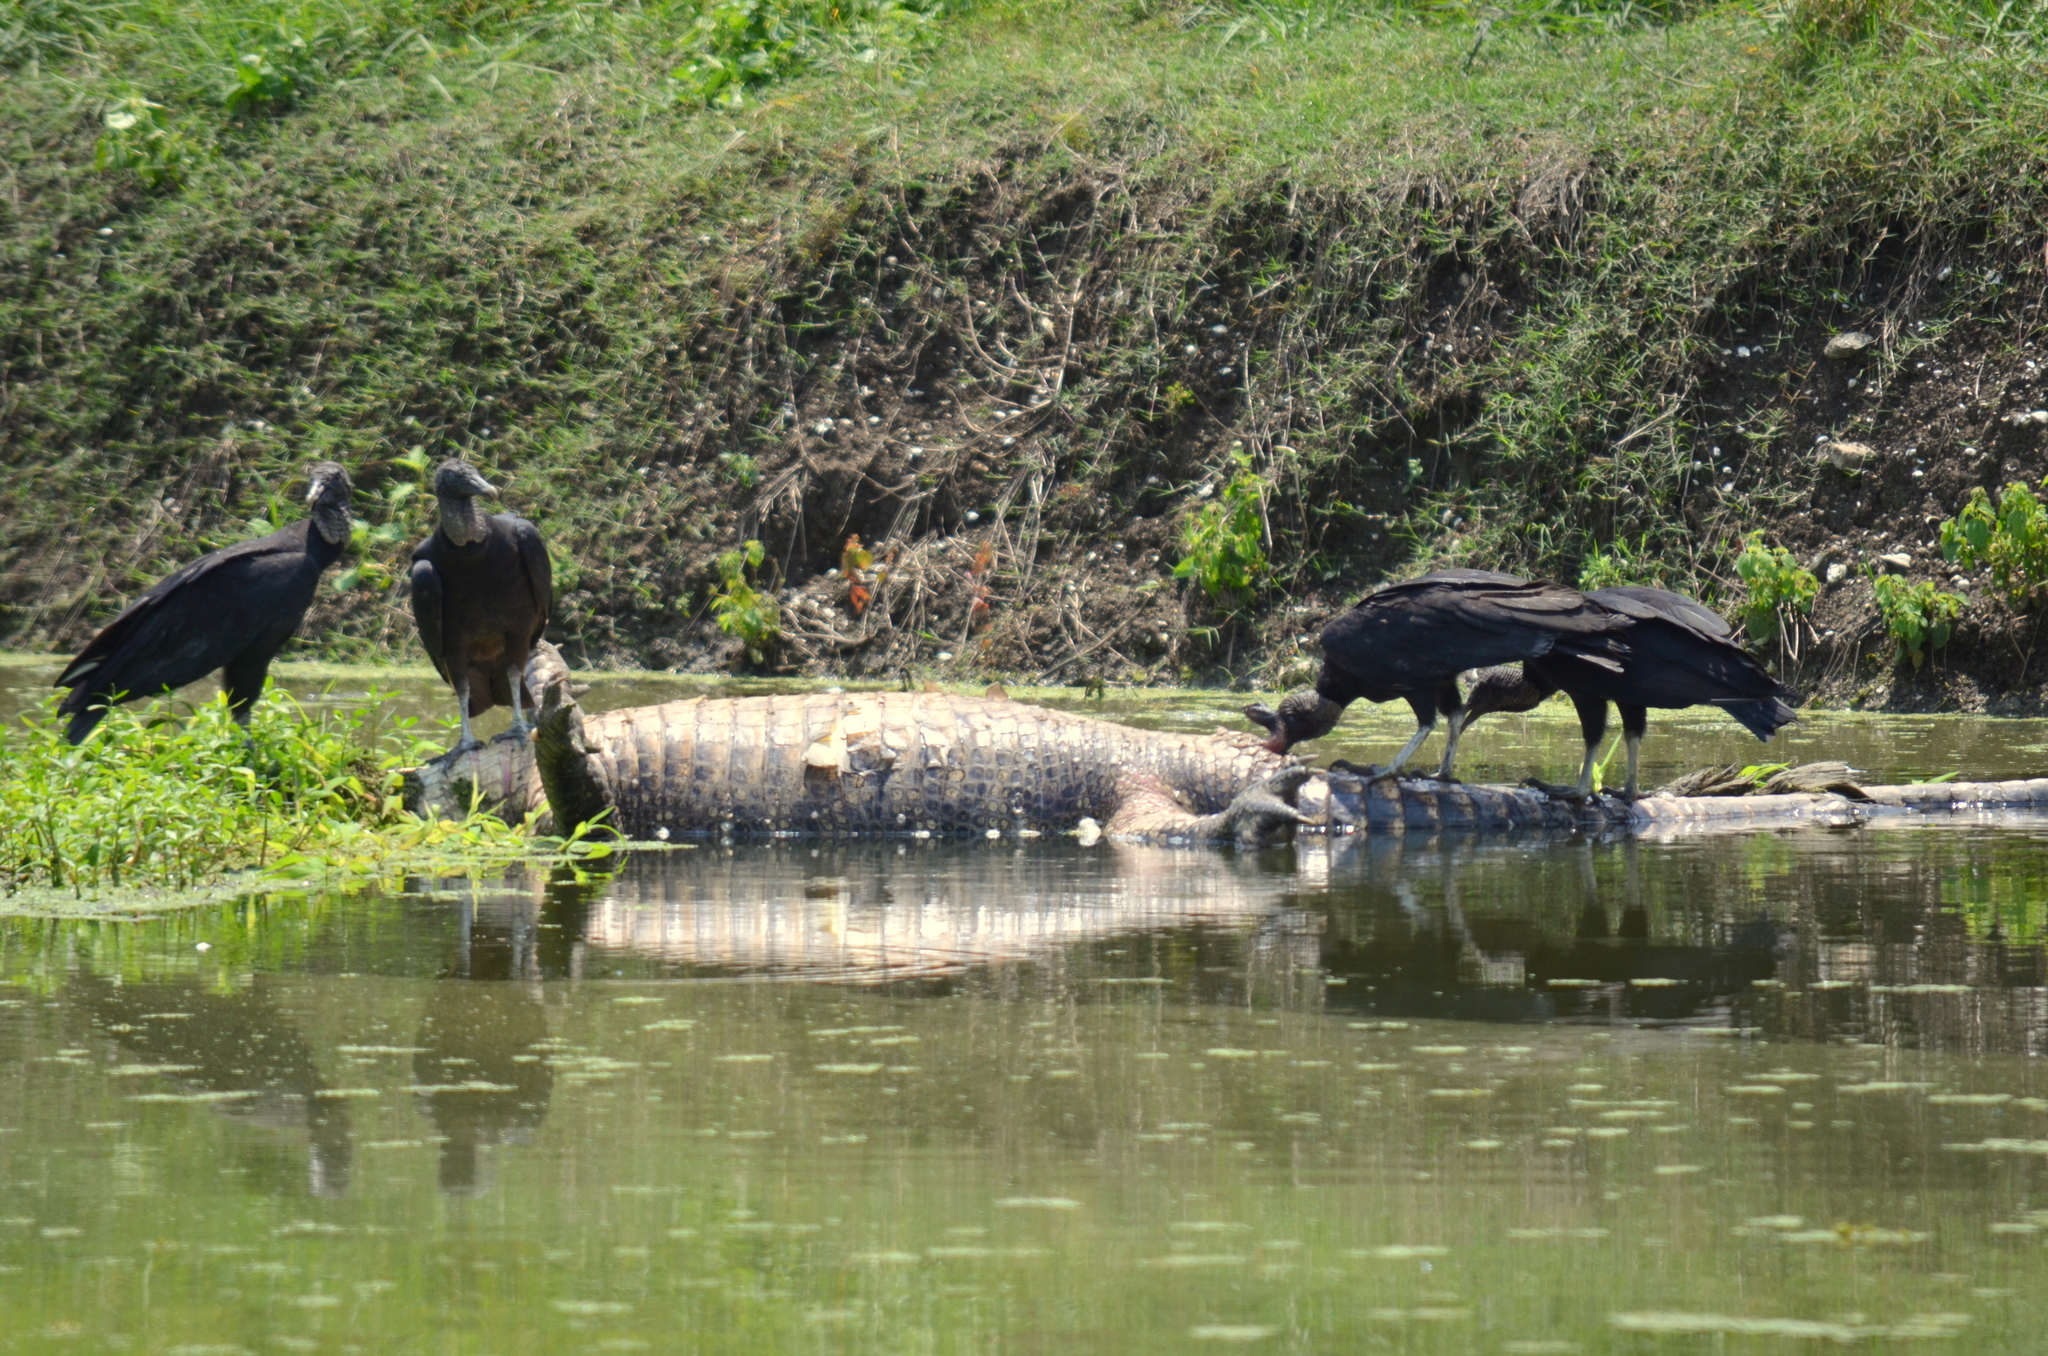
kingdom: Animalia
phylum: Chordata
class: Aves
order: Accipitriformes
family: Cathartidae
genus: Coragyps
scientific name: Coragyps atratus
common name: Black vulture
